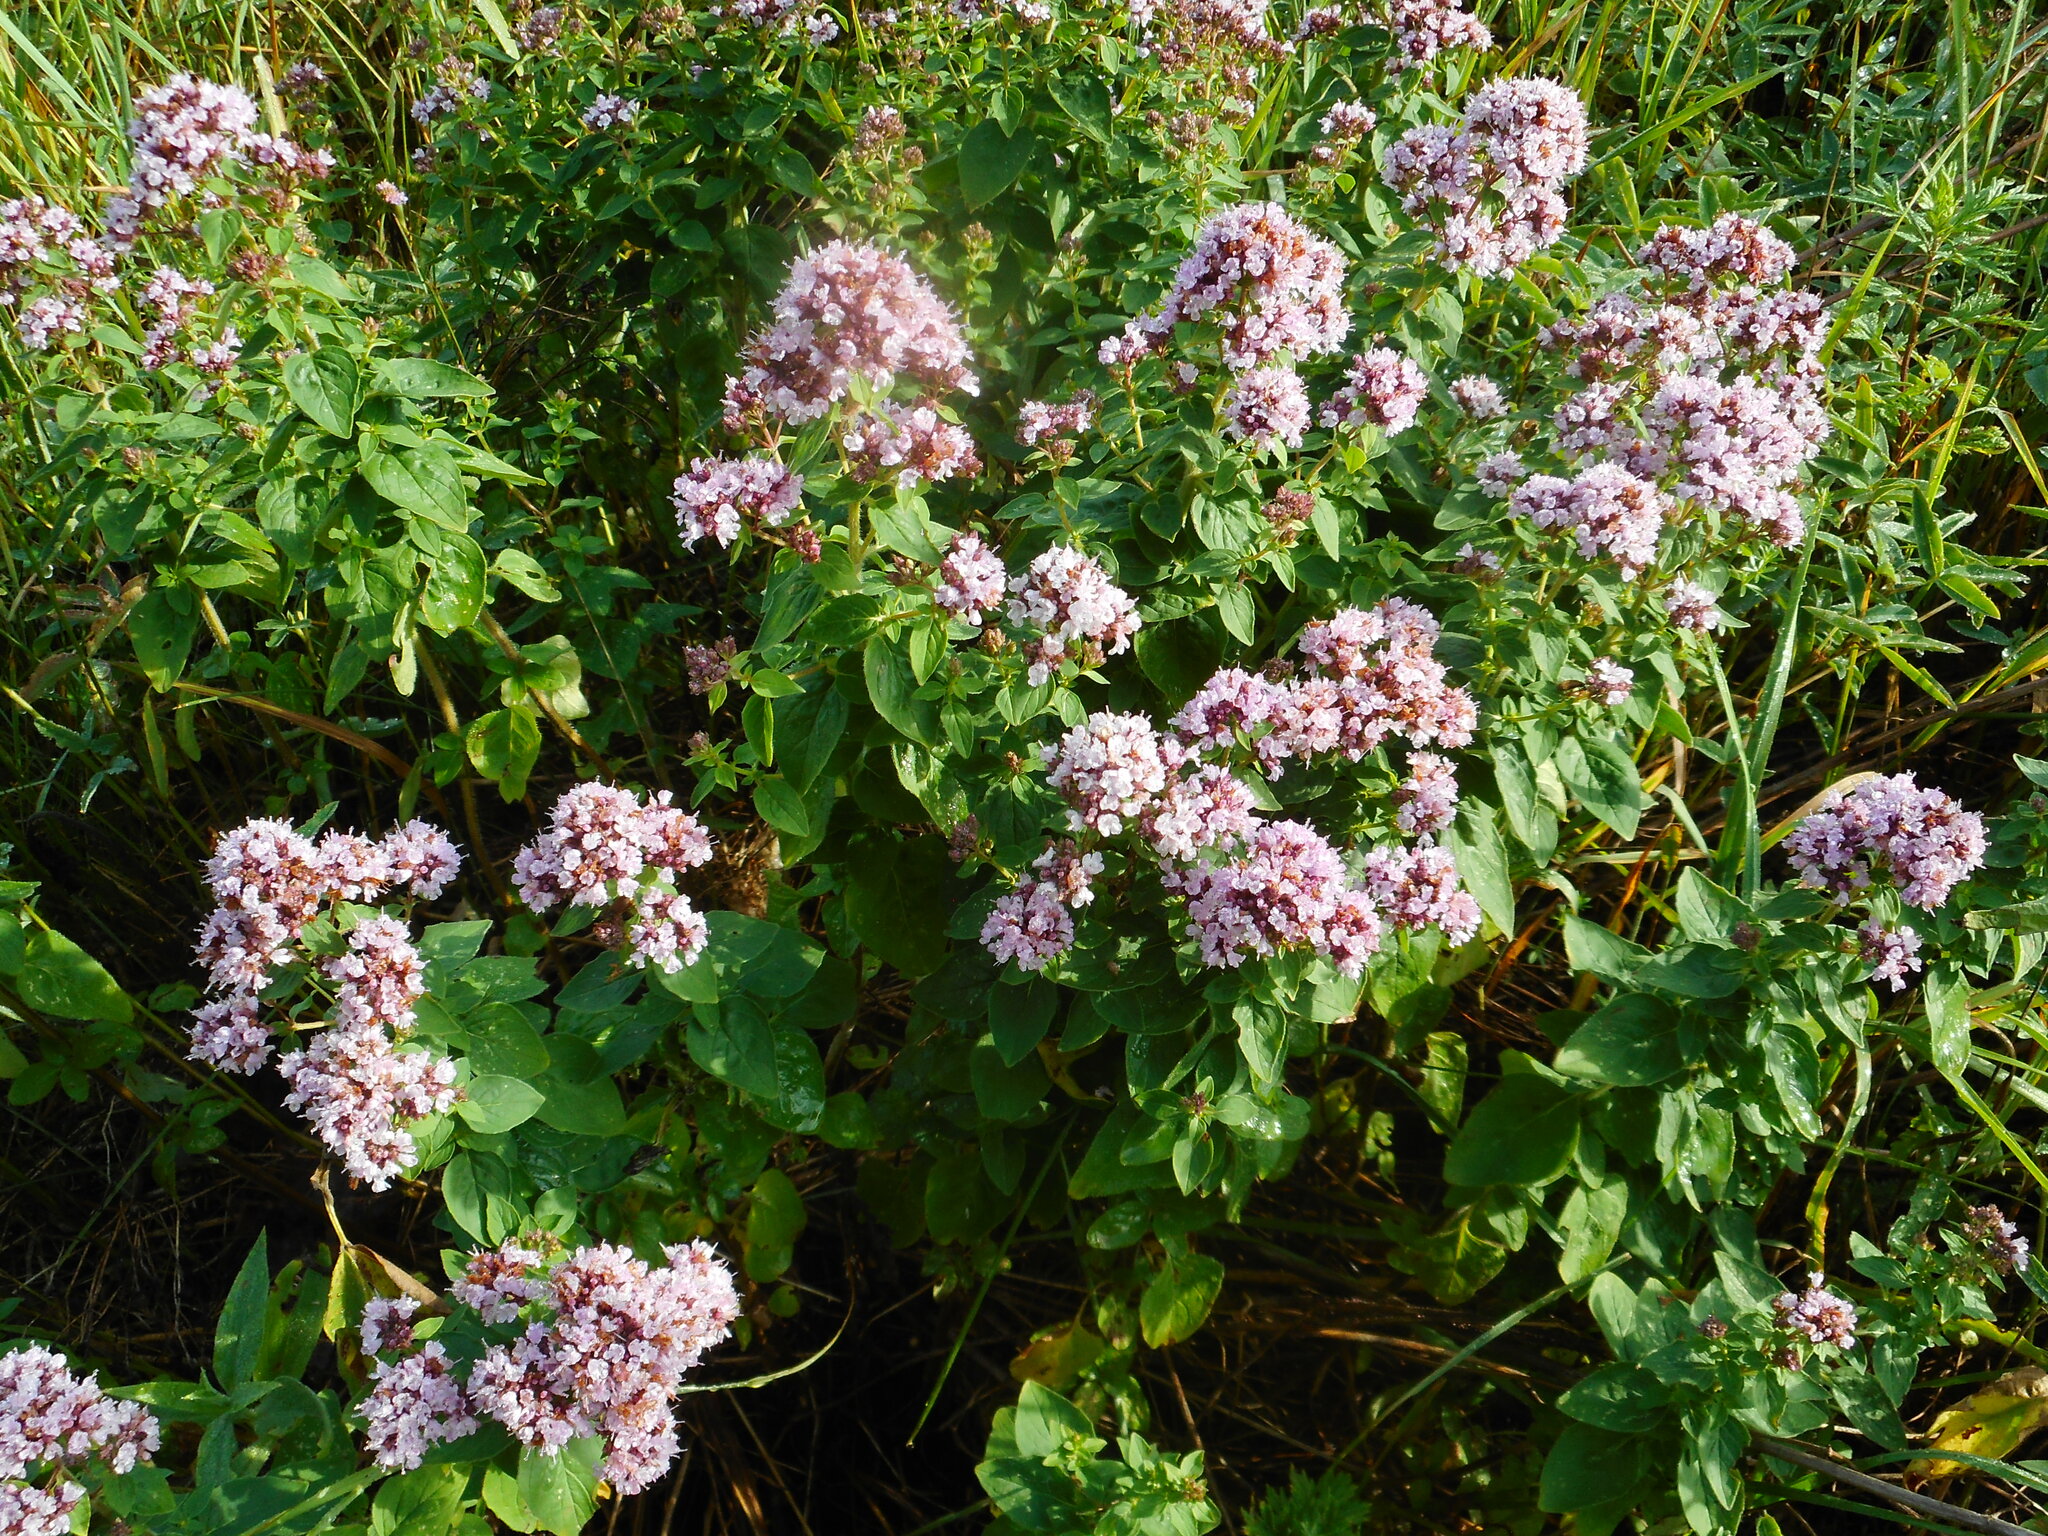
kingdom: Plantae
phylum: Tracheophyta
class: Magnoliopsida
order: Lamiales
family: Lamiaceae
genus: Origanum
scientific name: Origanum vulgare
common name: Wild marjoram
